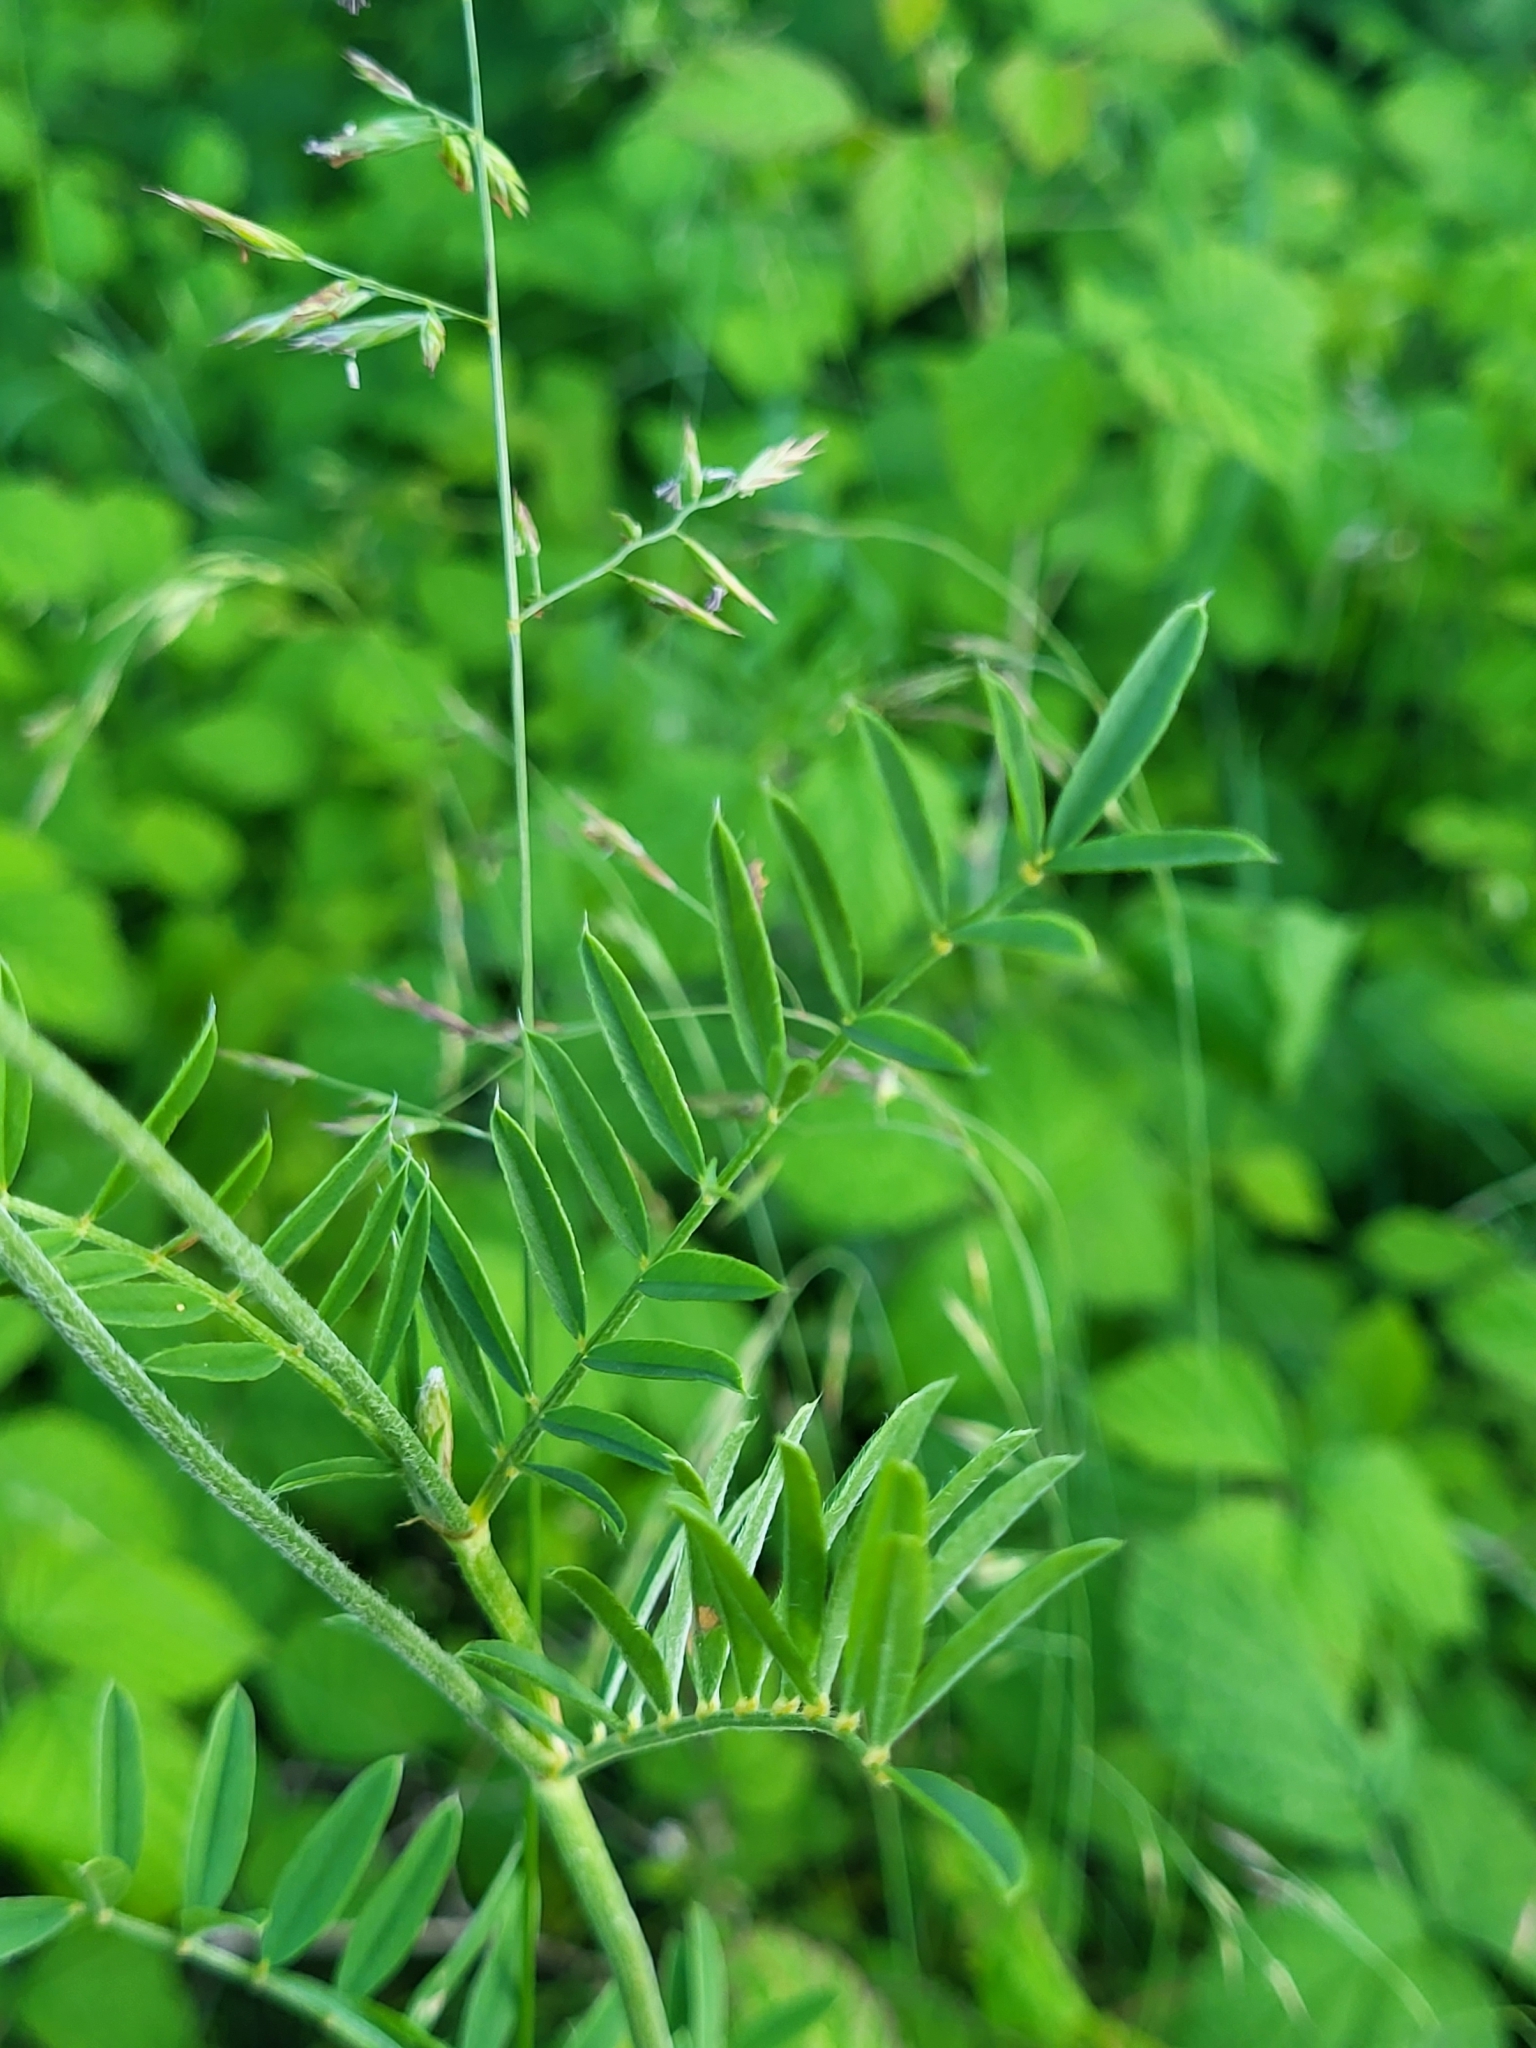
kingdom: Plantae
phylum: Tracheophyta
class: Magnoliopsida
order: Fabales
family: Fabaceae
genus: Onobrychis
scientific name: Onobrychis viciifolia
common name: Sainfoin
